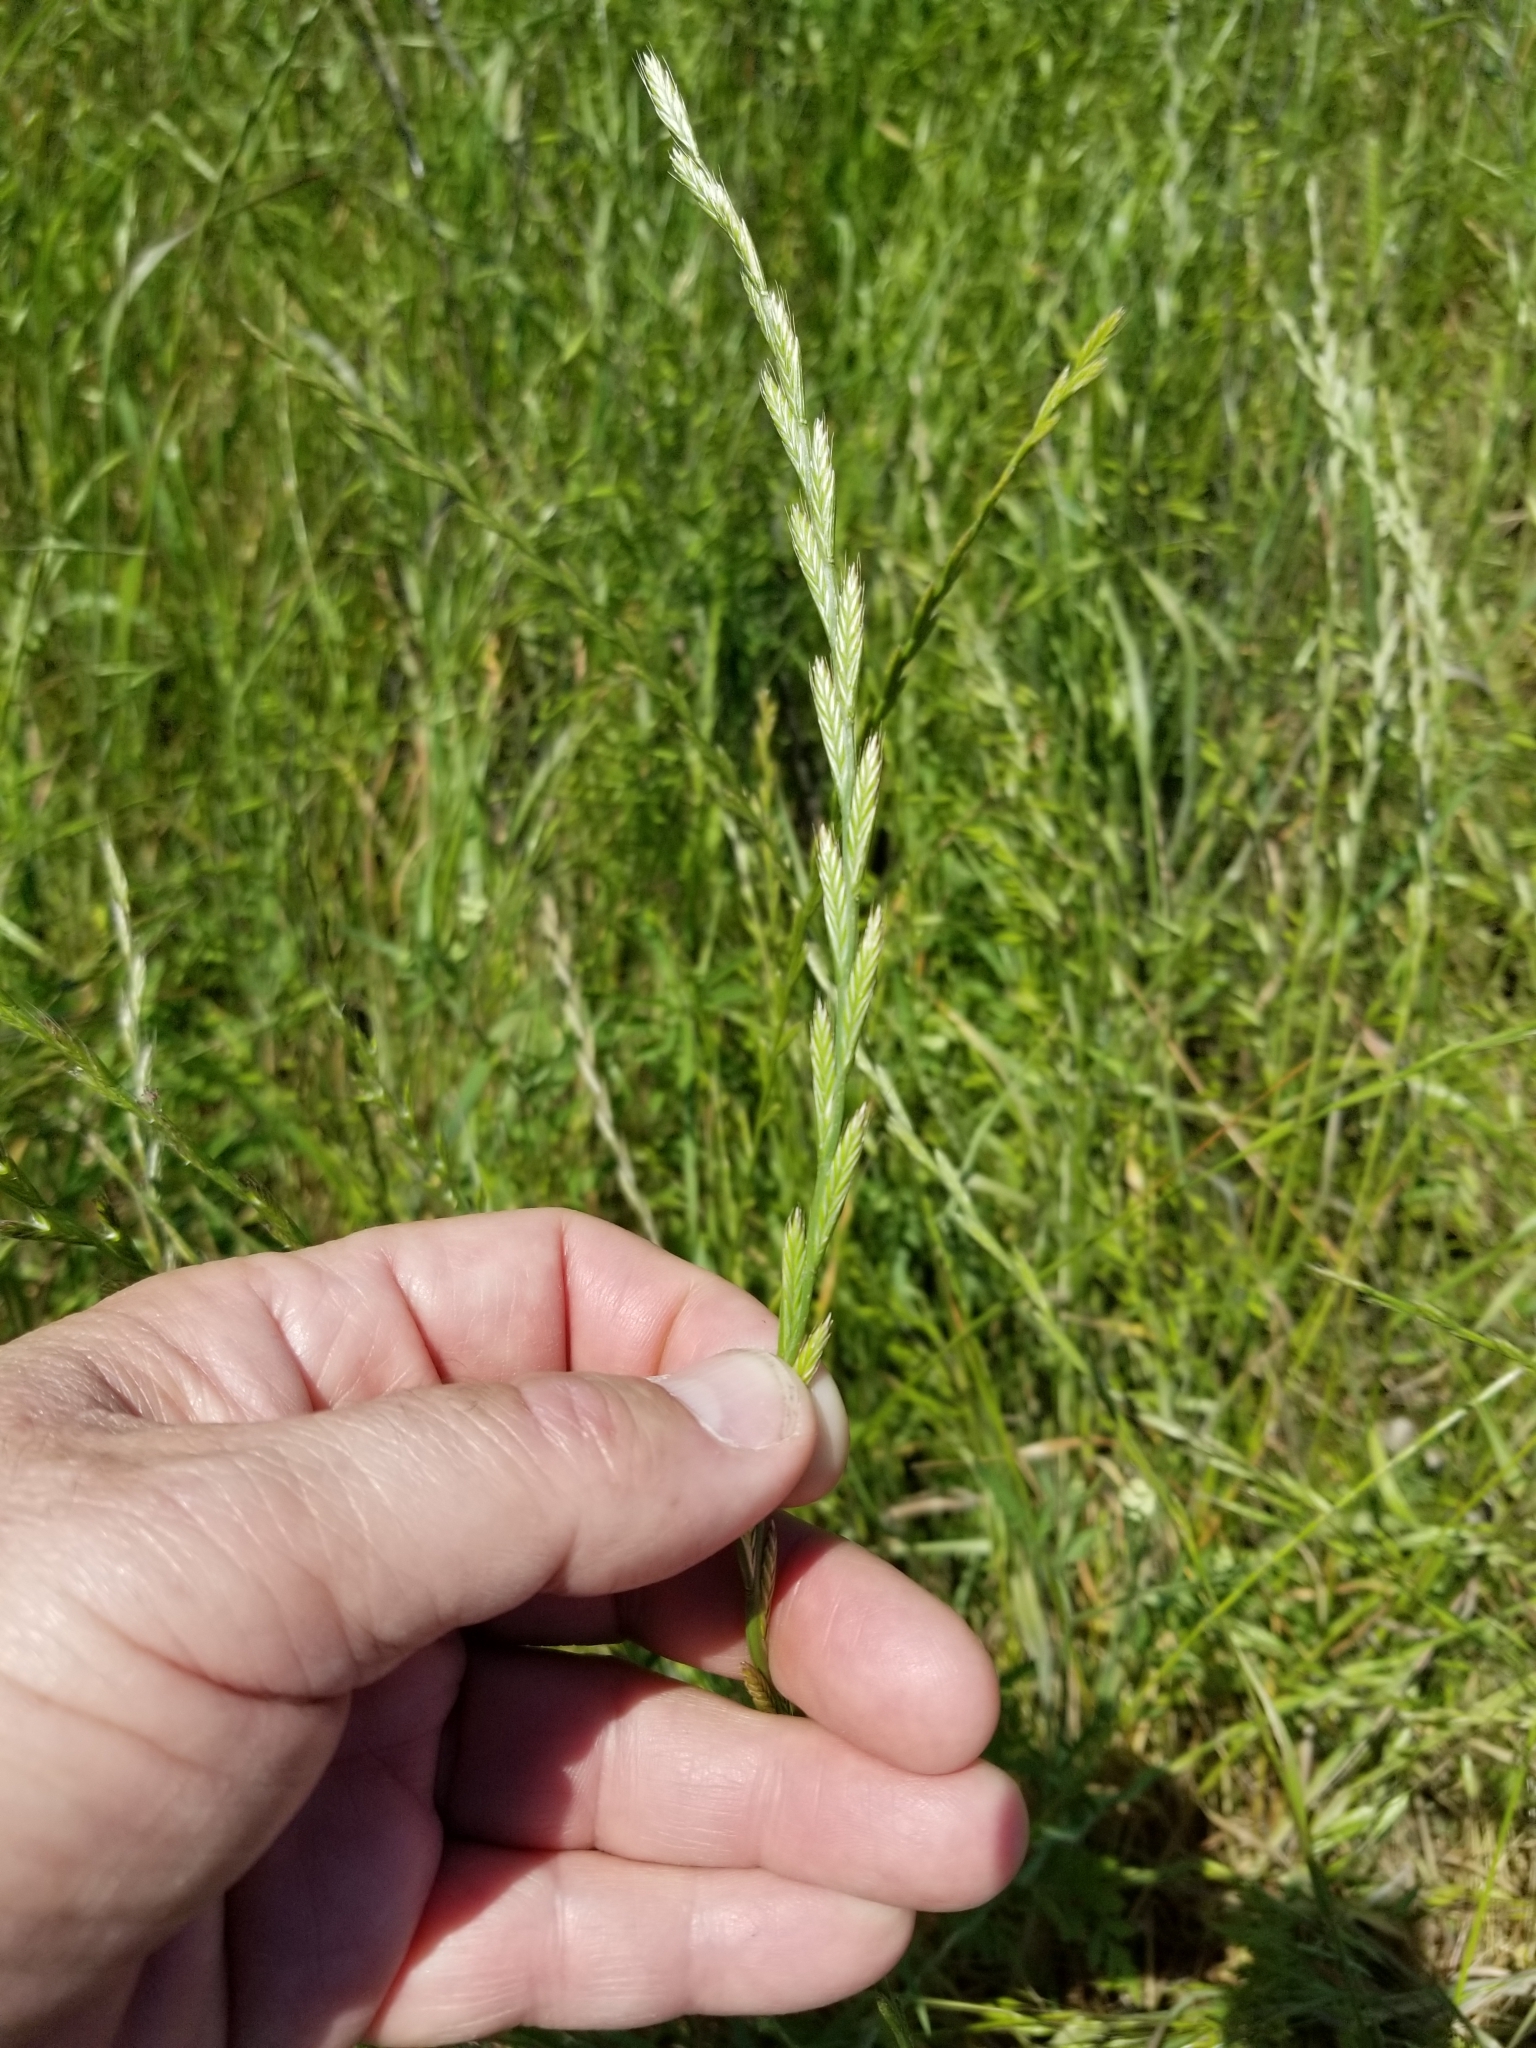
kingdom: Plantae
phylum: Tracheophyta
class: Liliopsida
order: Poales
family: Poaceae
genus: Lolium
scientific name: Lolium perenne
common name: Perennial ryegrass
